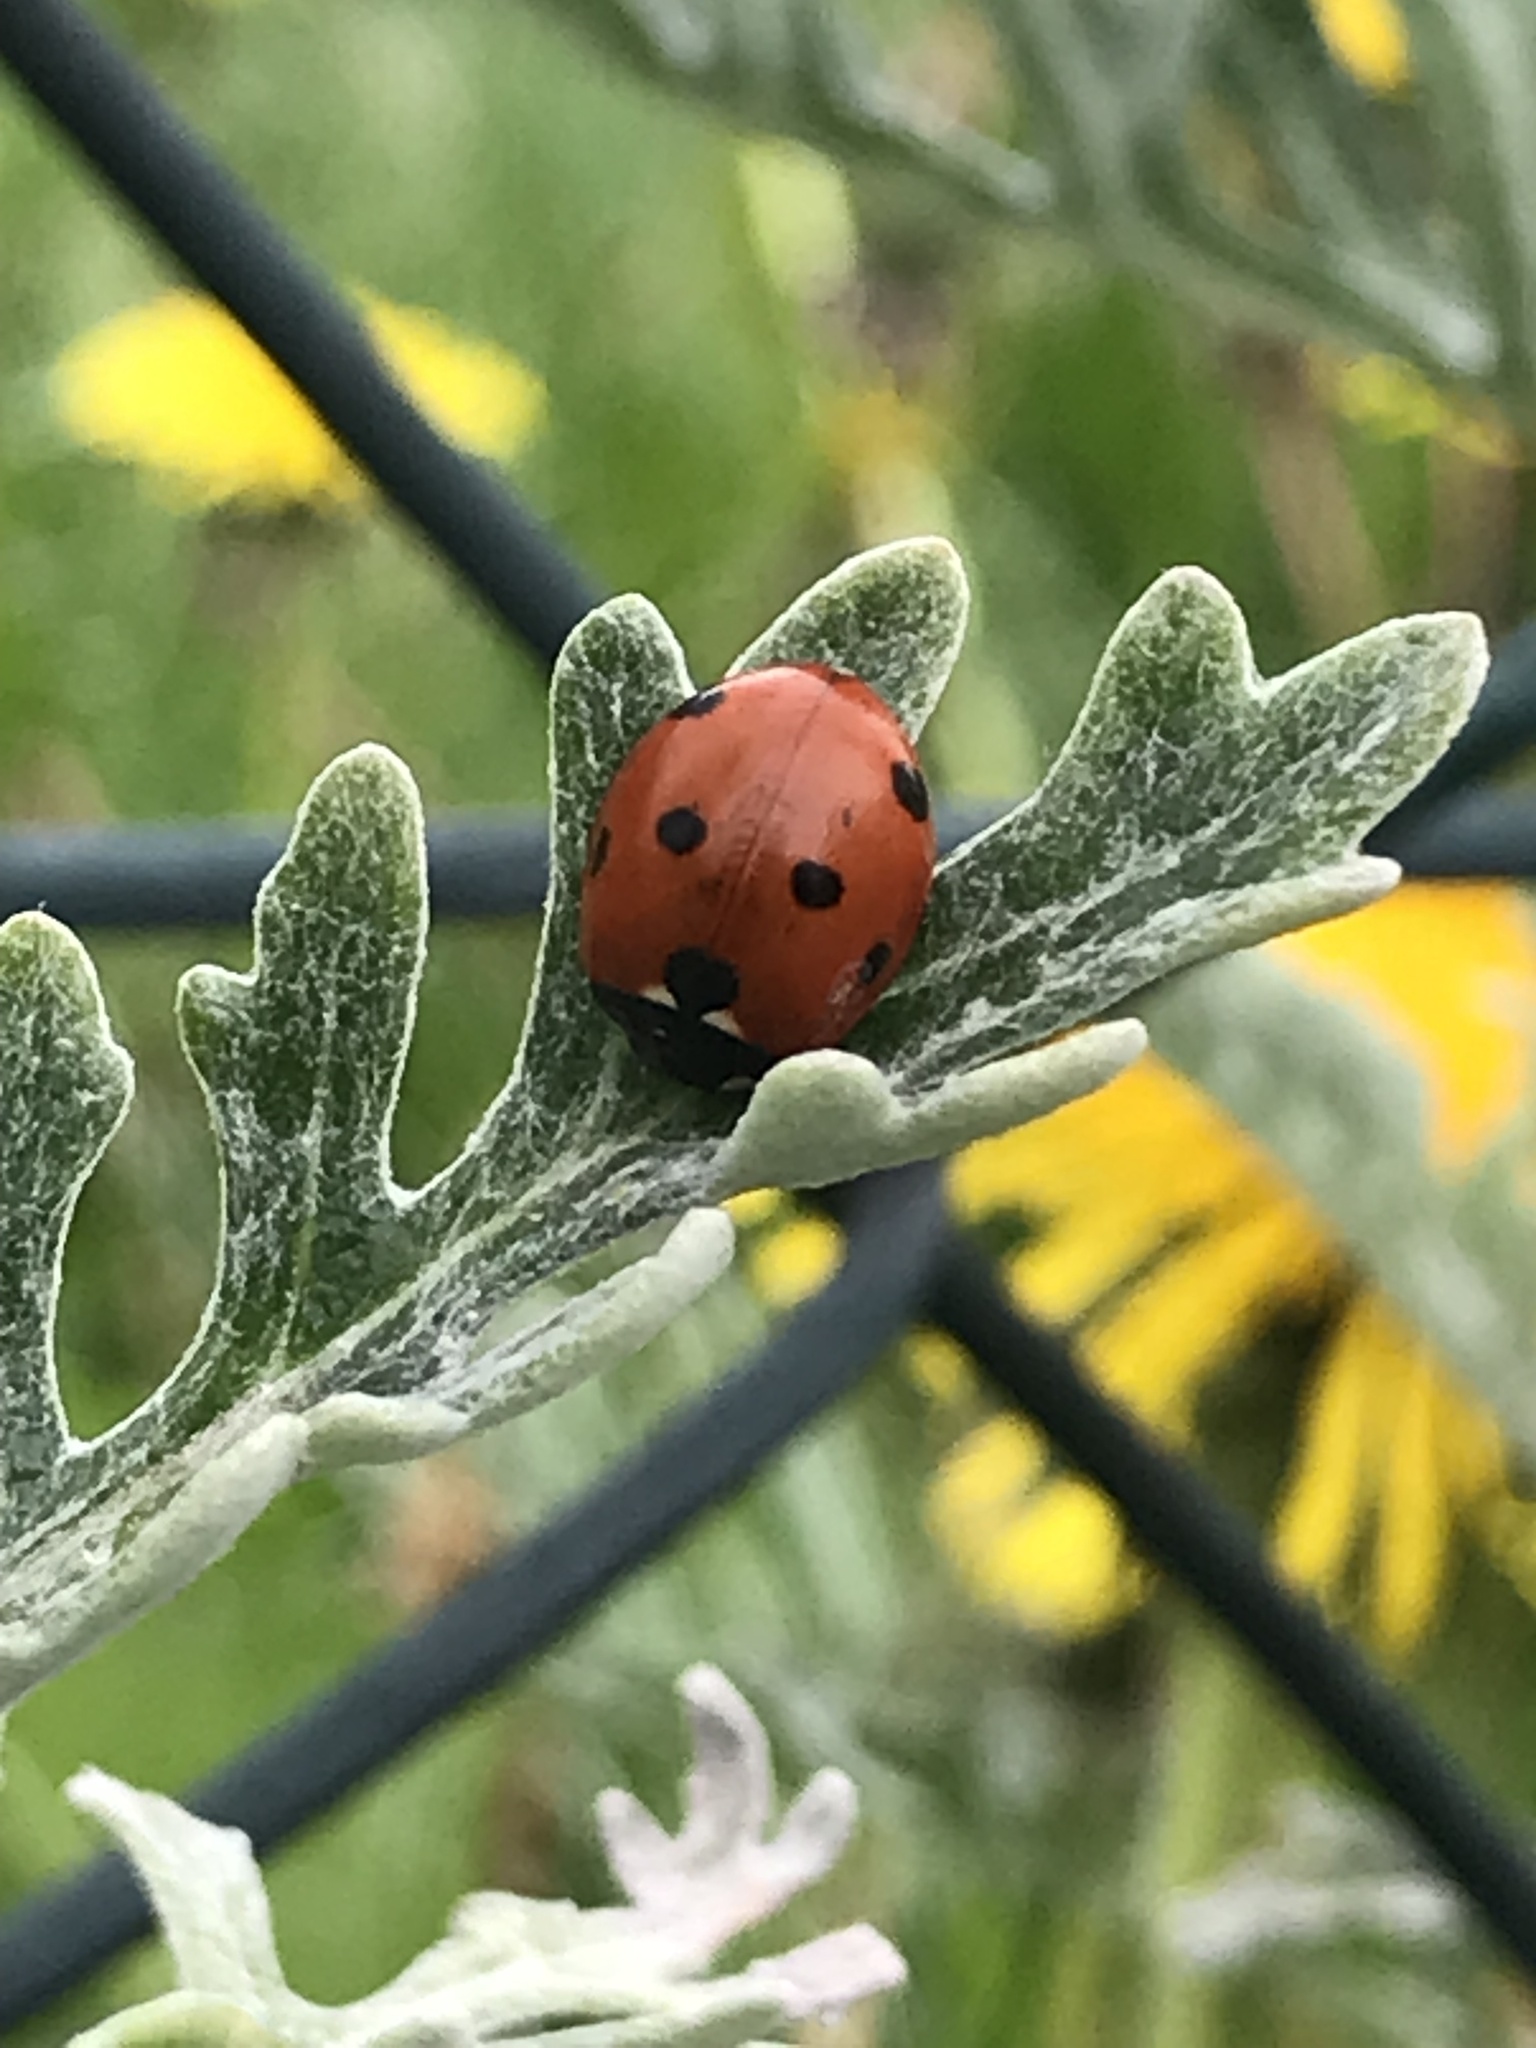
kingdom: Animalia
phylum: Arthropoda
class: Insecta
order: Coleoptera
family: Coccinellidae
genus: Coccinella
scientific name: Coccinella septempunctata
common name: Sevenspotted lady beetle
